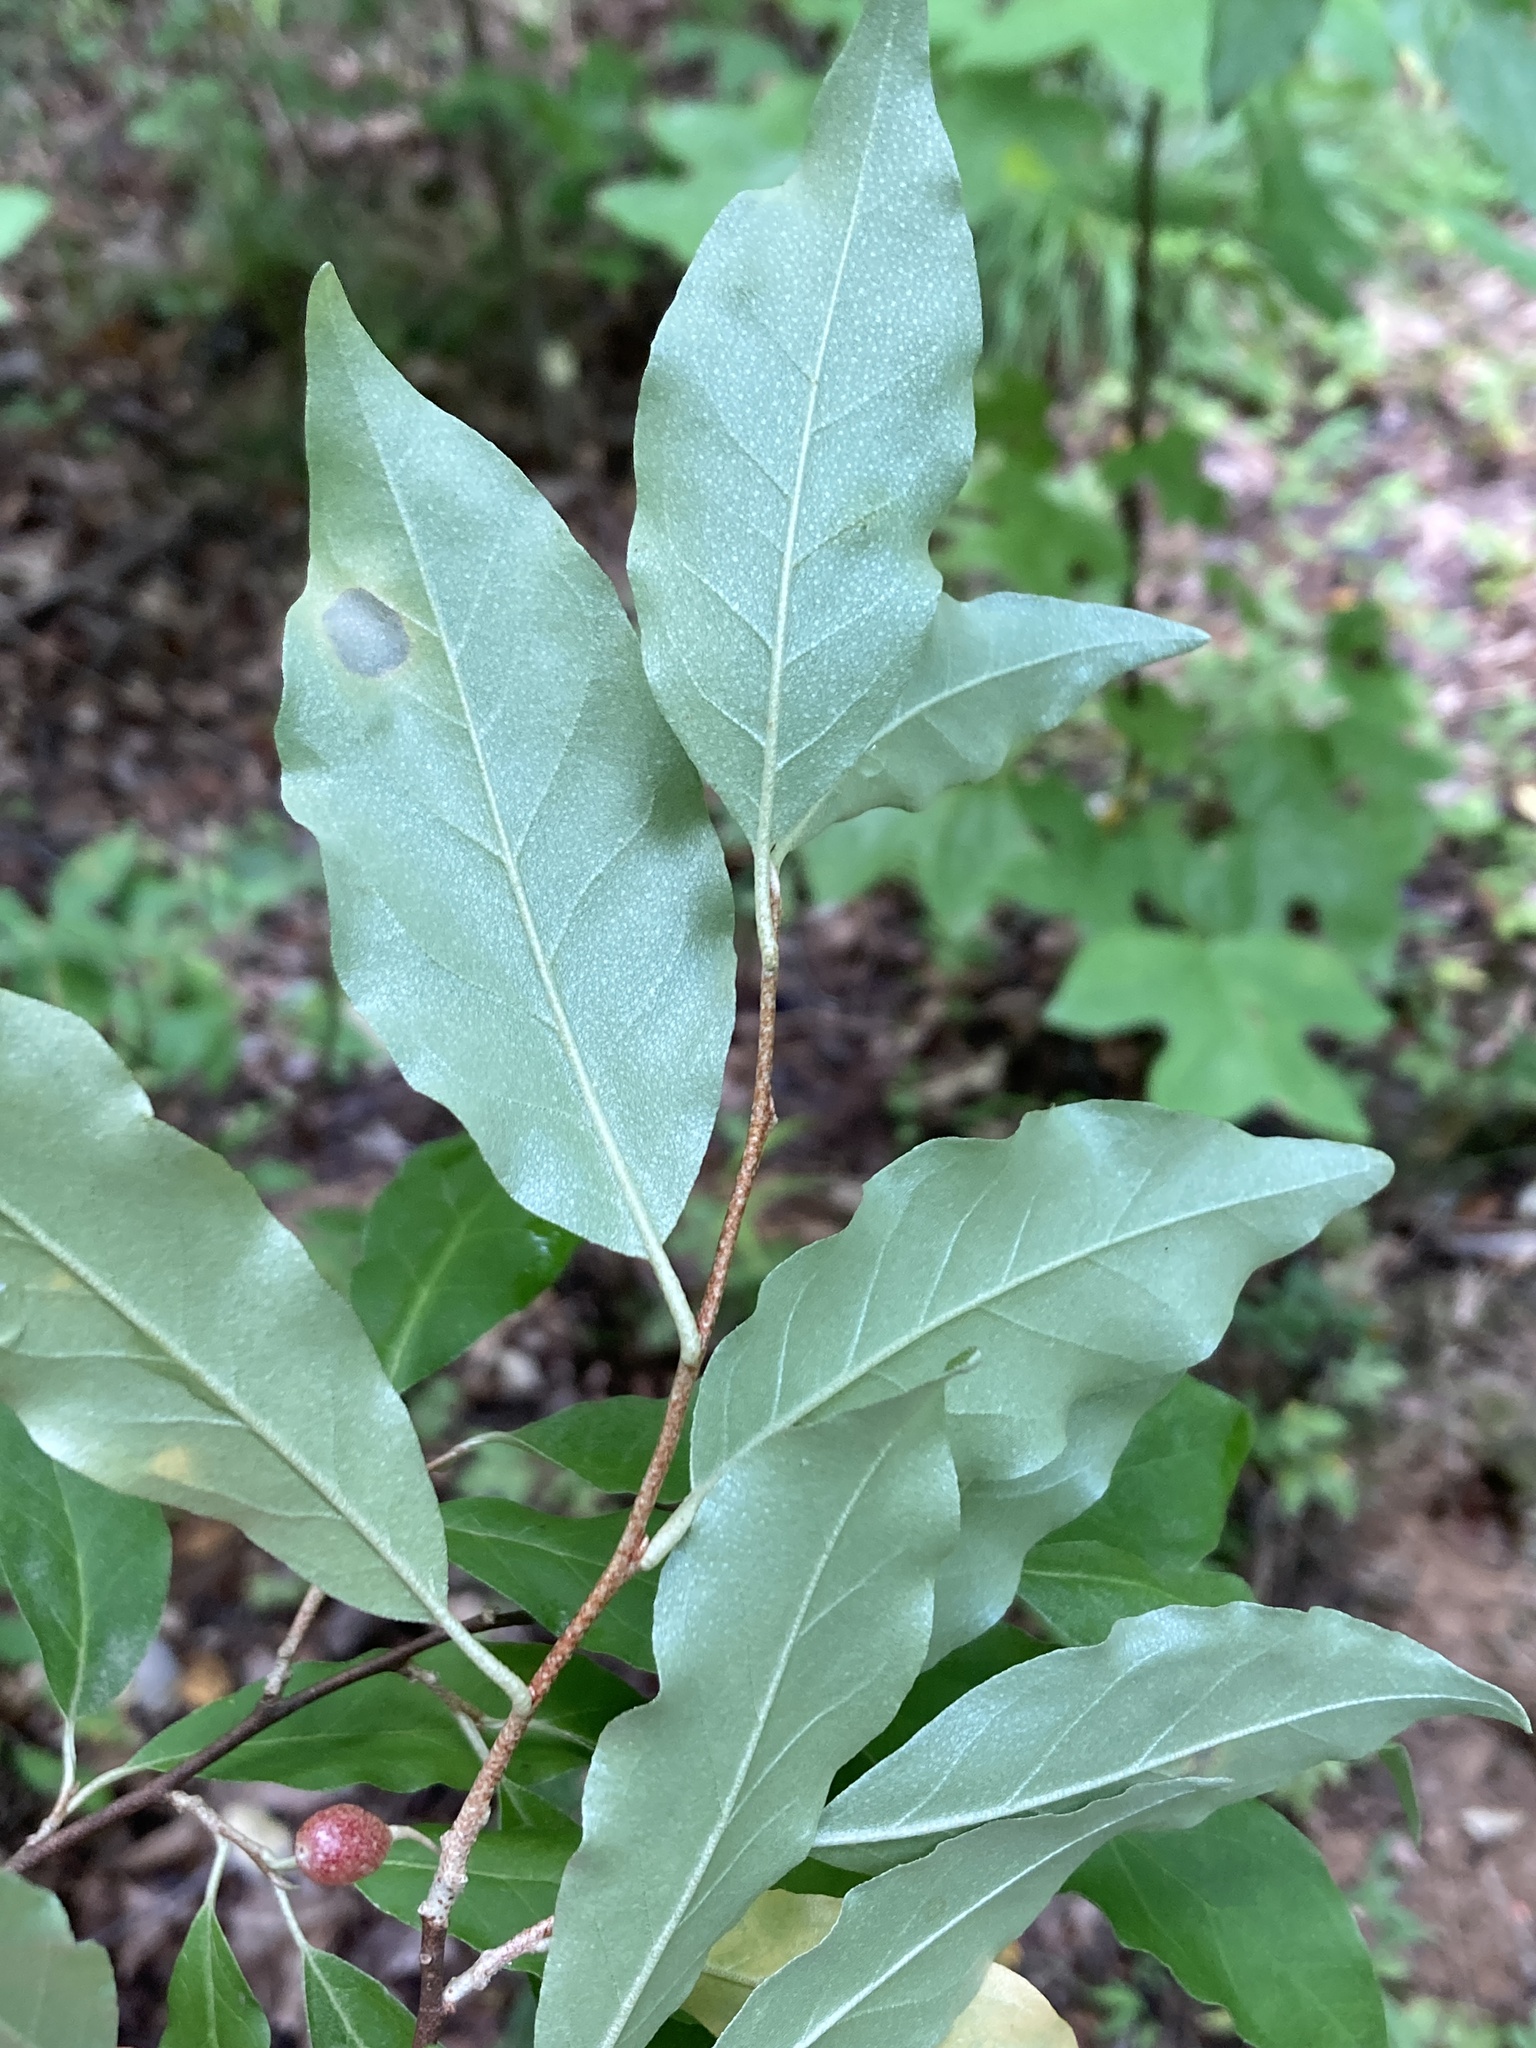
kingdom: Plantae
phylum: Tracheophyta
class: Magnoliopsida
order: Rosales
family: Elaeagnaceae
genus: Elaeagnus
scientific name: Elaeagnus umbellata
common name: Autumn olive
